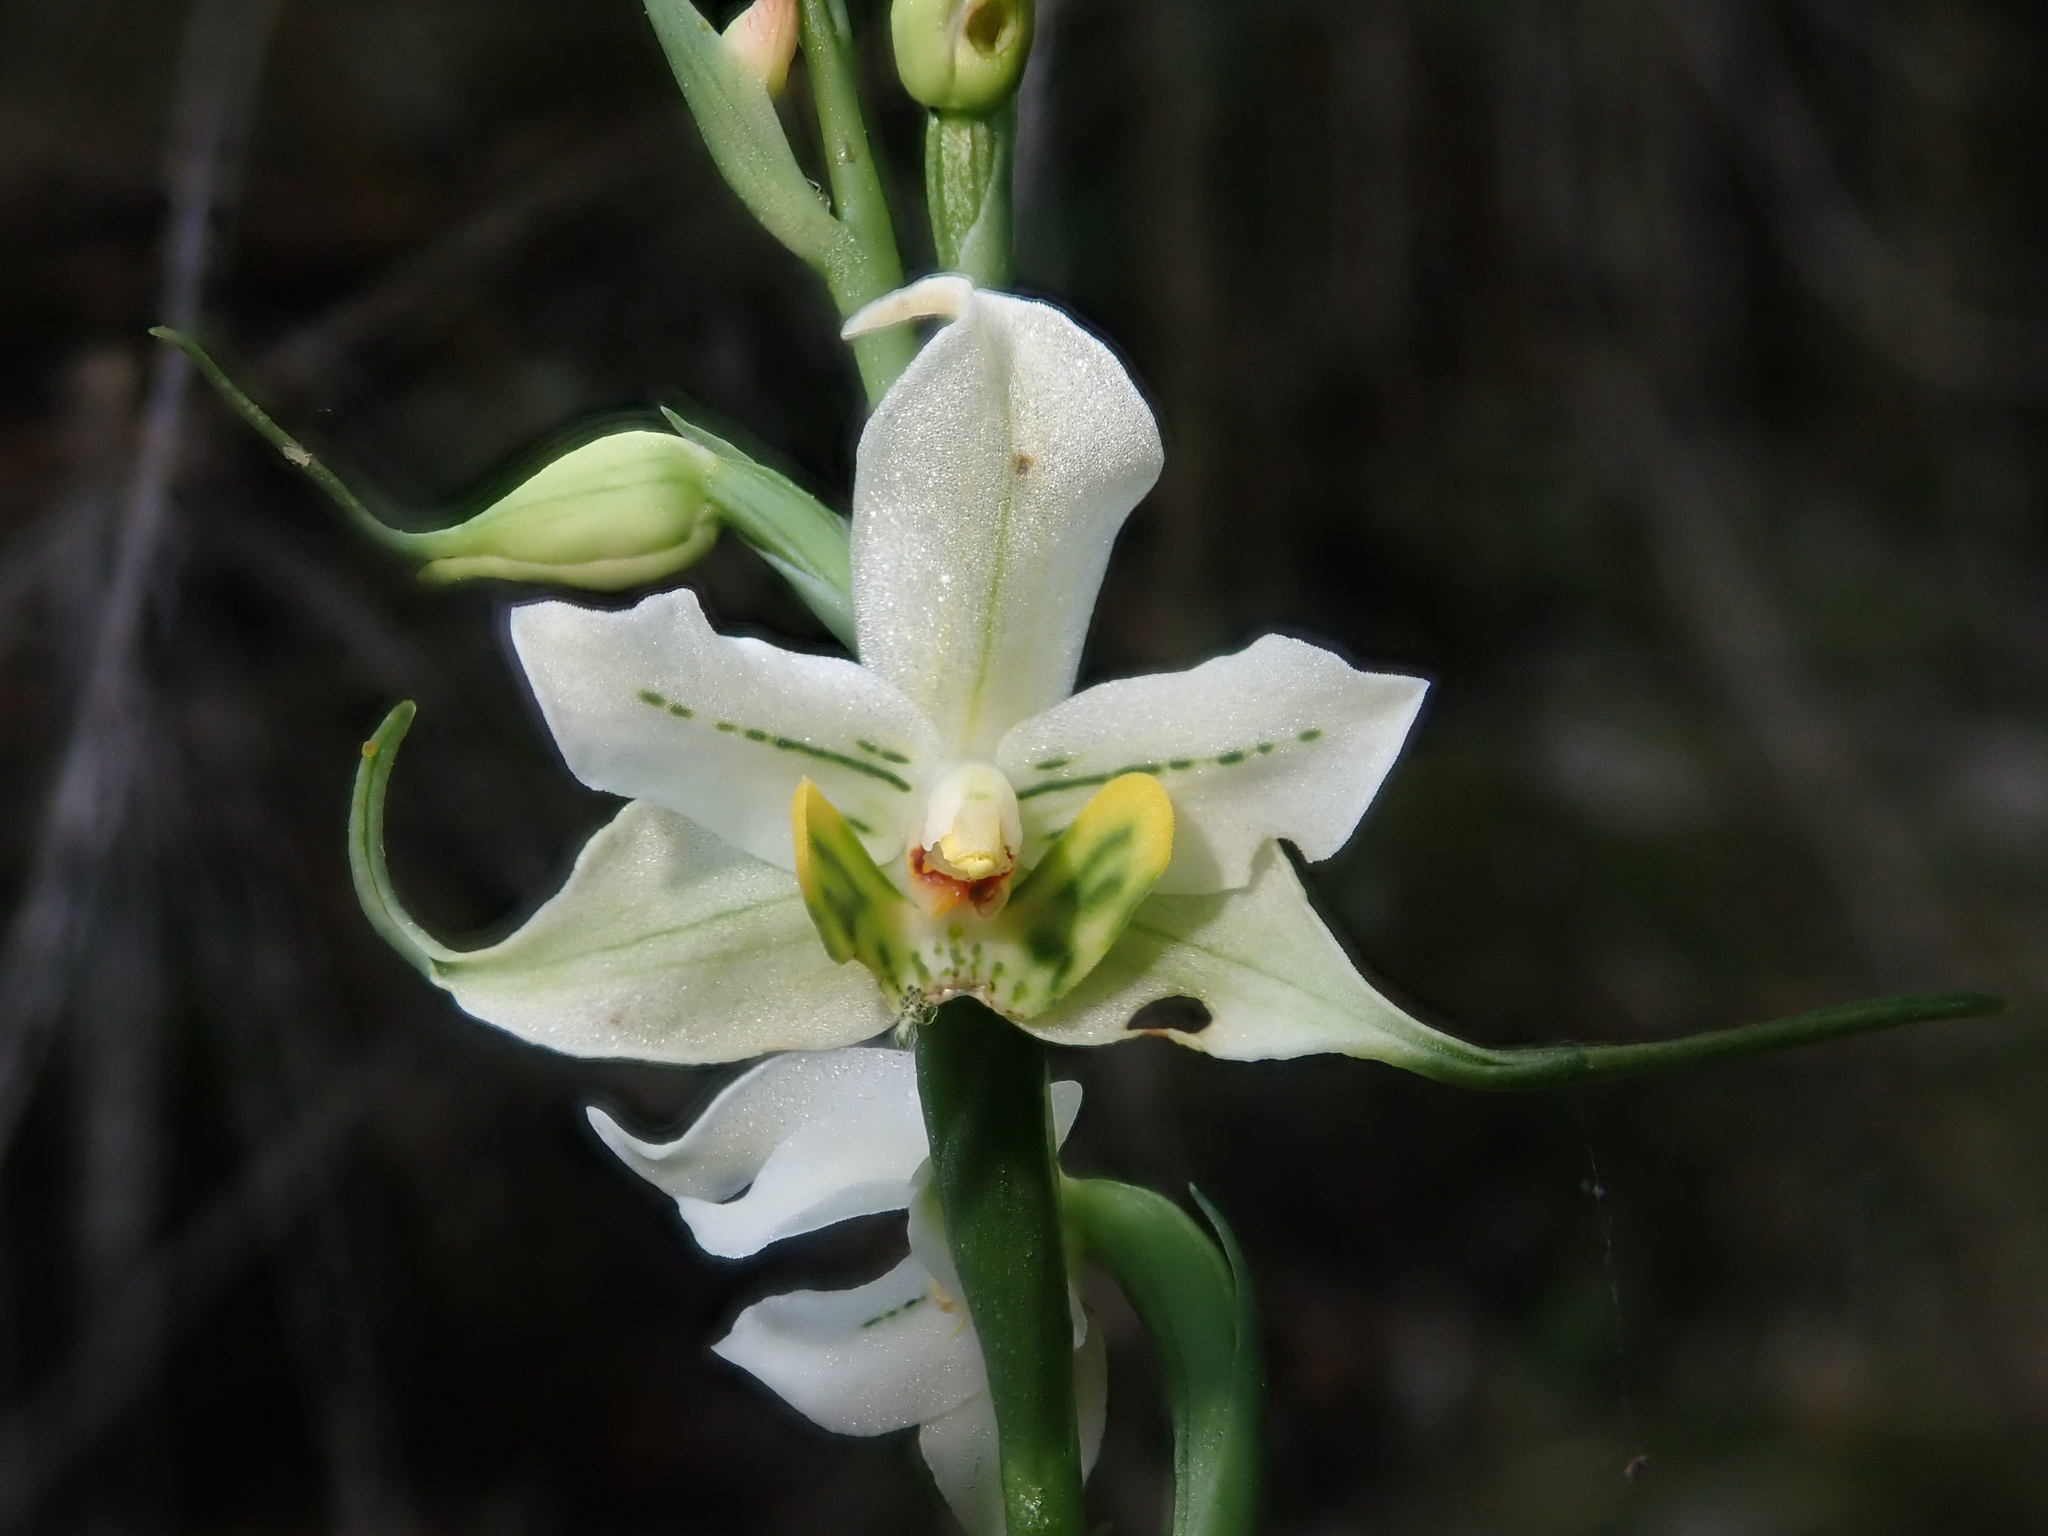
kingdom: Plantae
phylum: Tracheophyta
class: Liliopsida
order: Asparagales
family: Orchidaceae
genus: Gavilea
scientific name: Gavilea araucana
